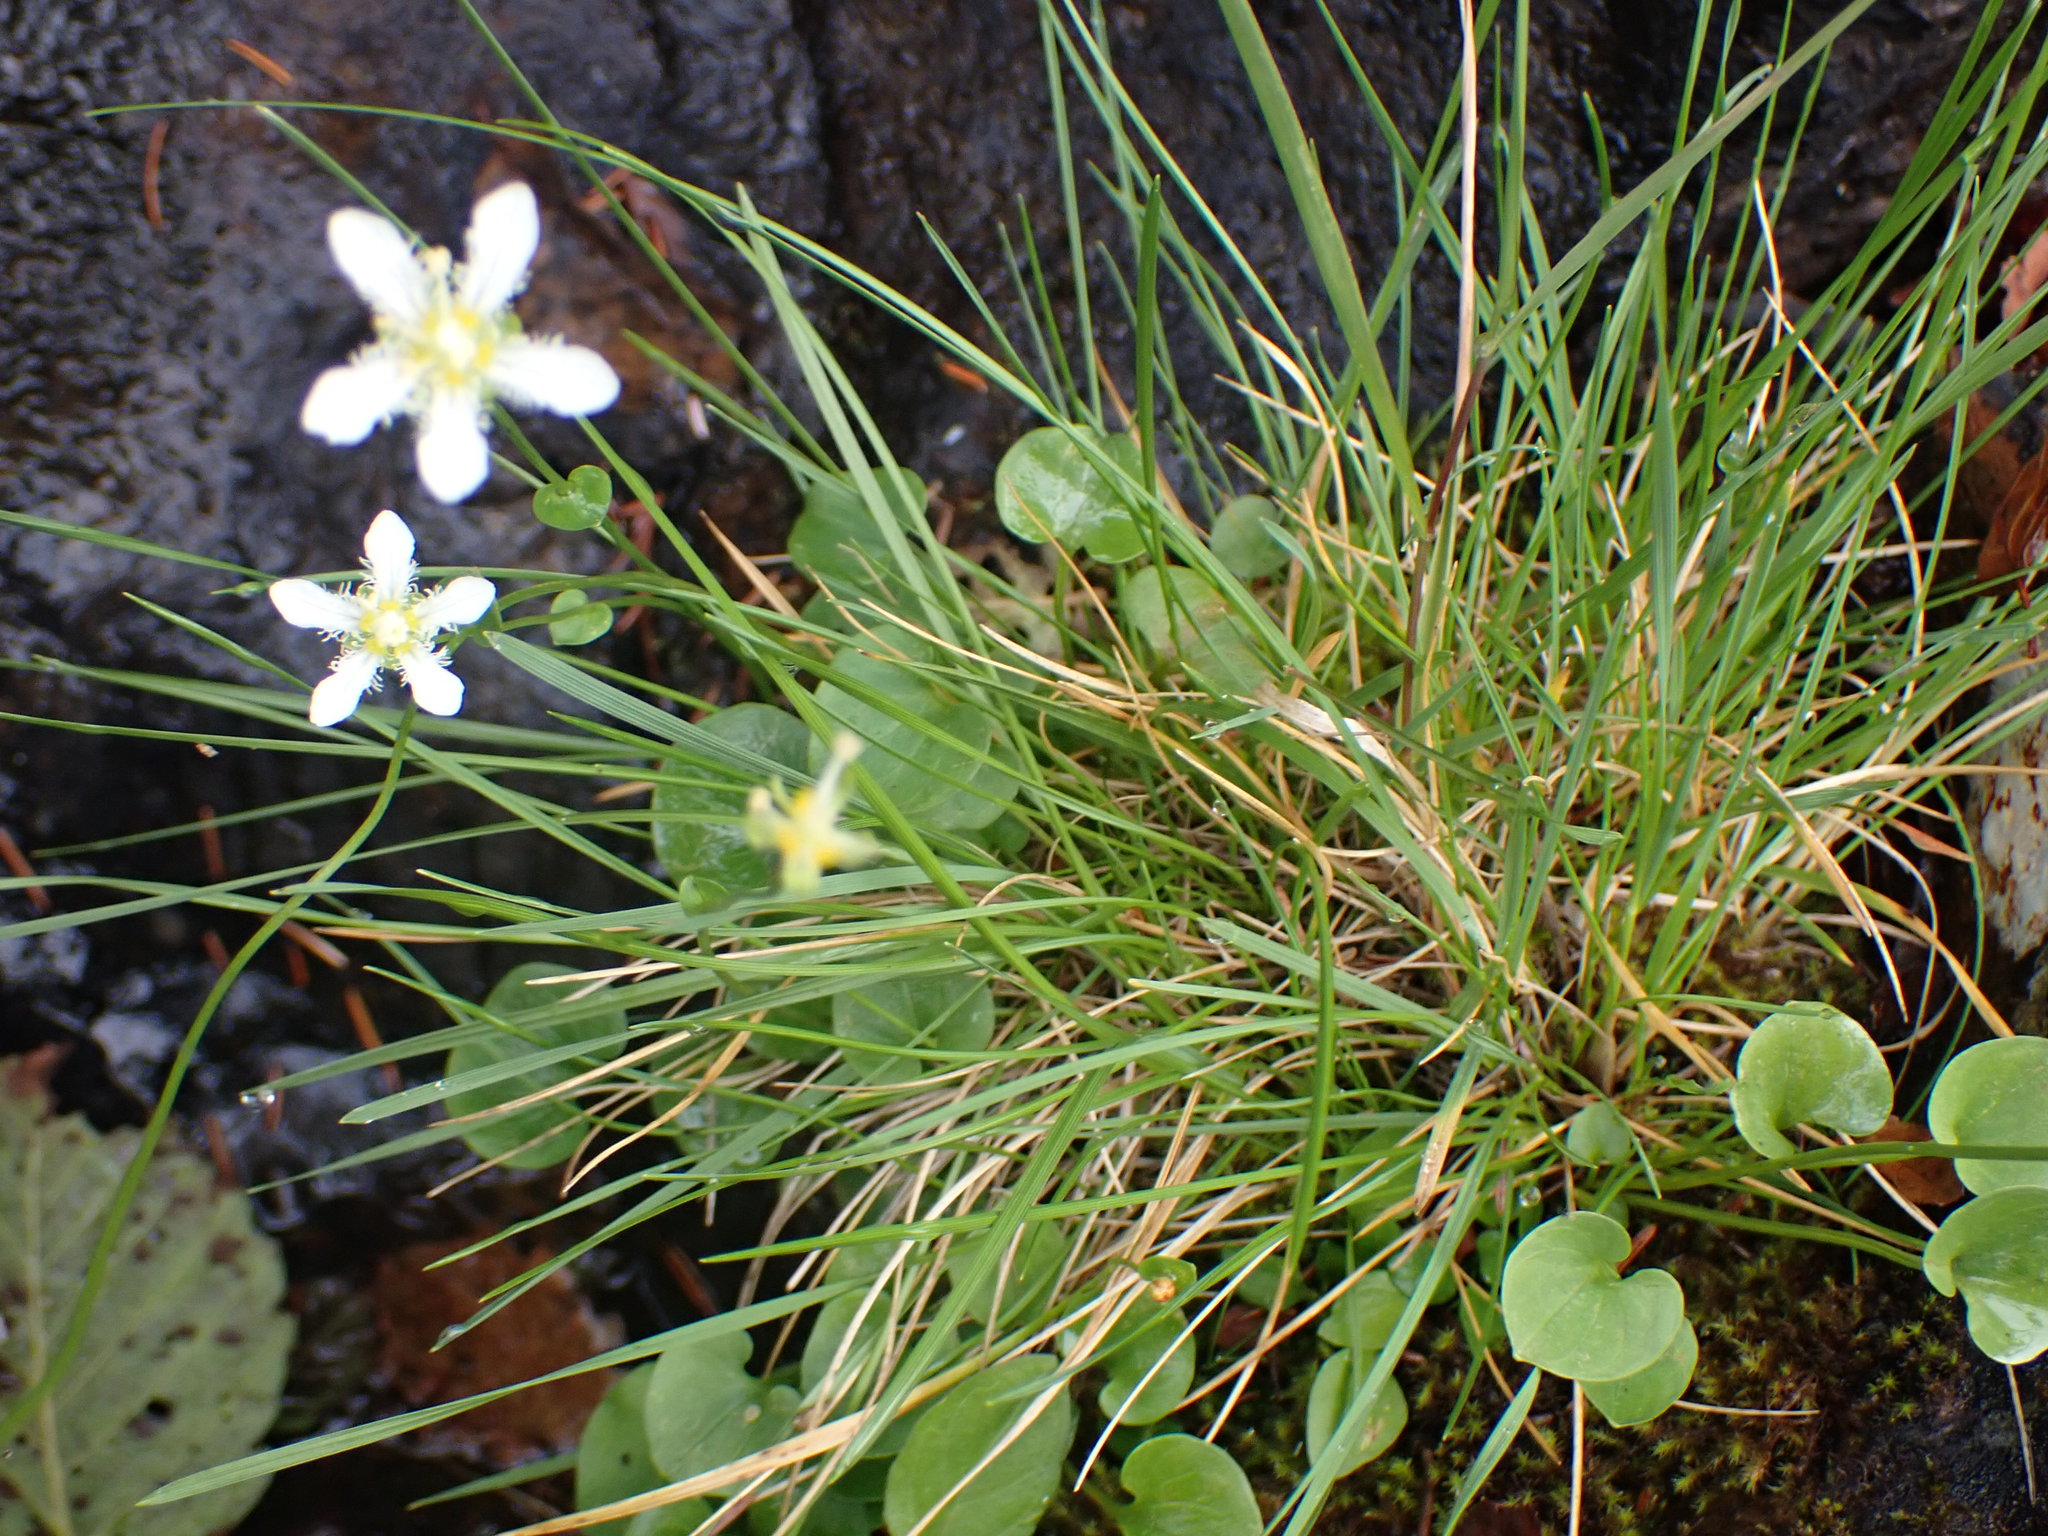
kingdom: Plantae
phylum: Tracheophyta
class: Magnoliopsida
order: Celastrales
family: Parnassiaceae
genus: Parnassia
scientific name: Parnassia fimbriata
